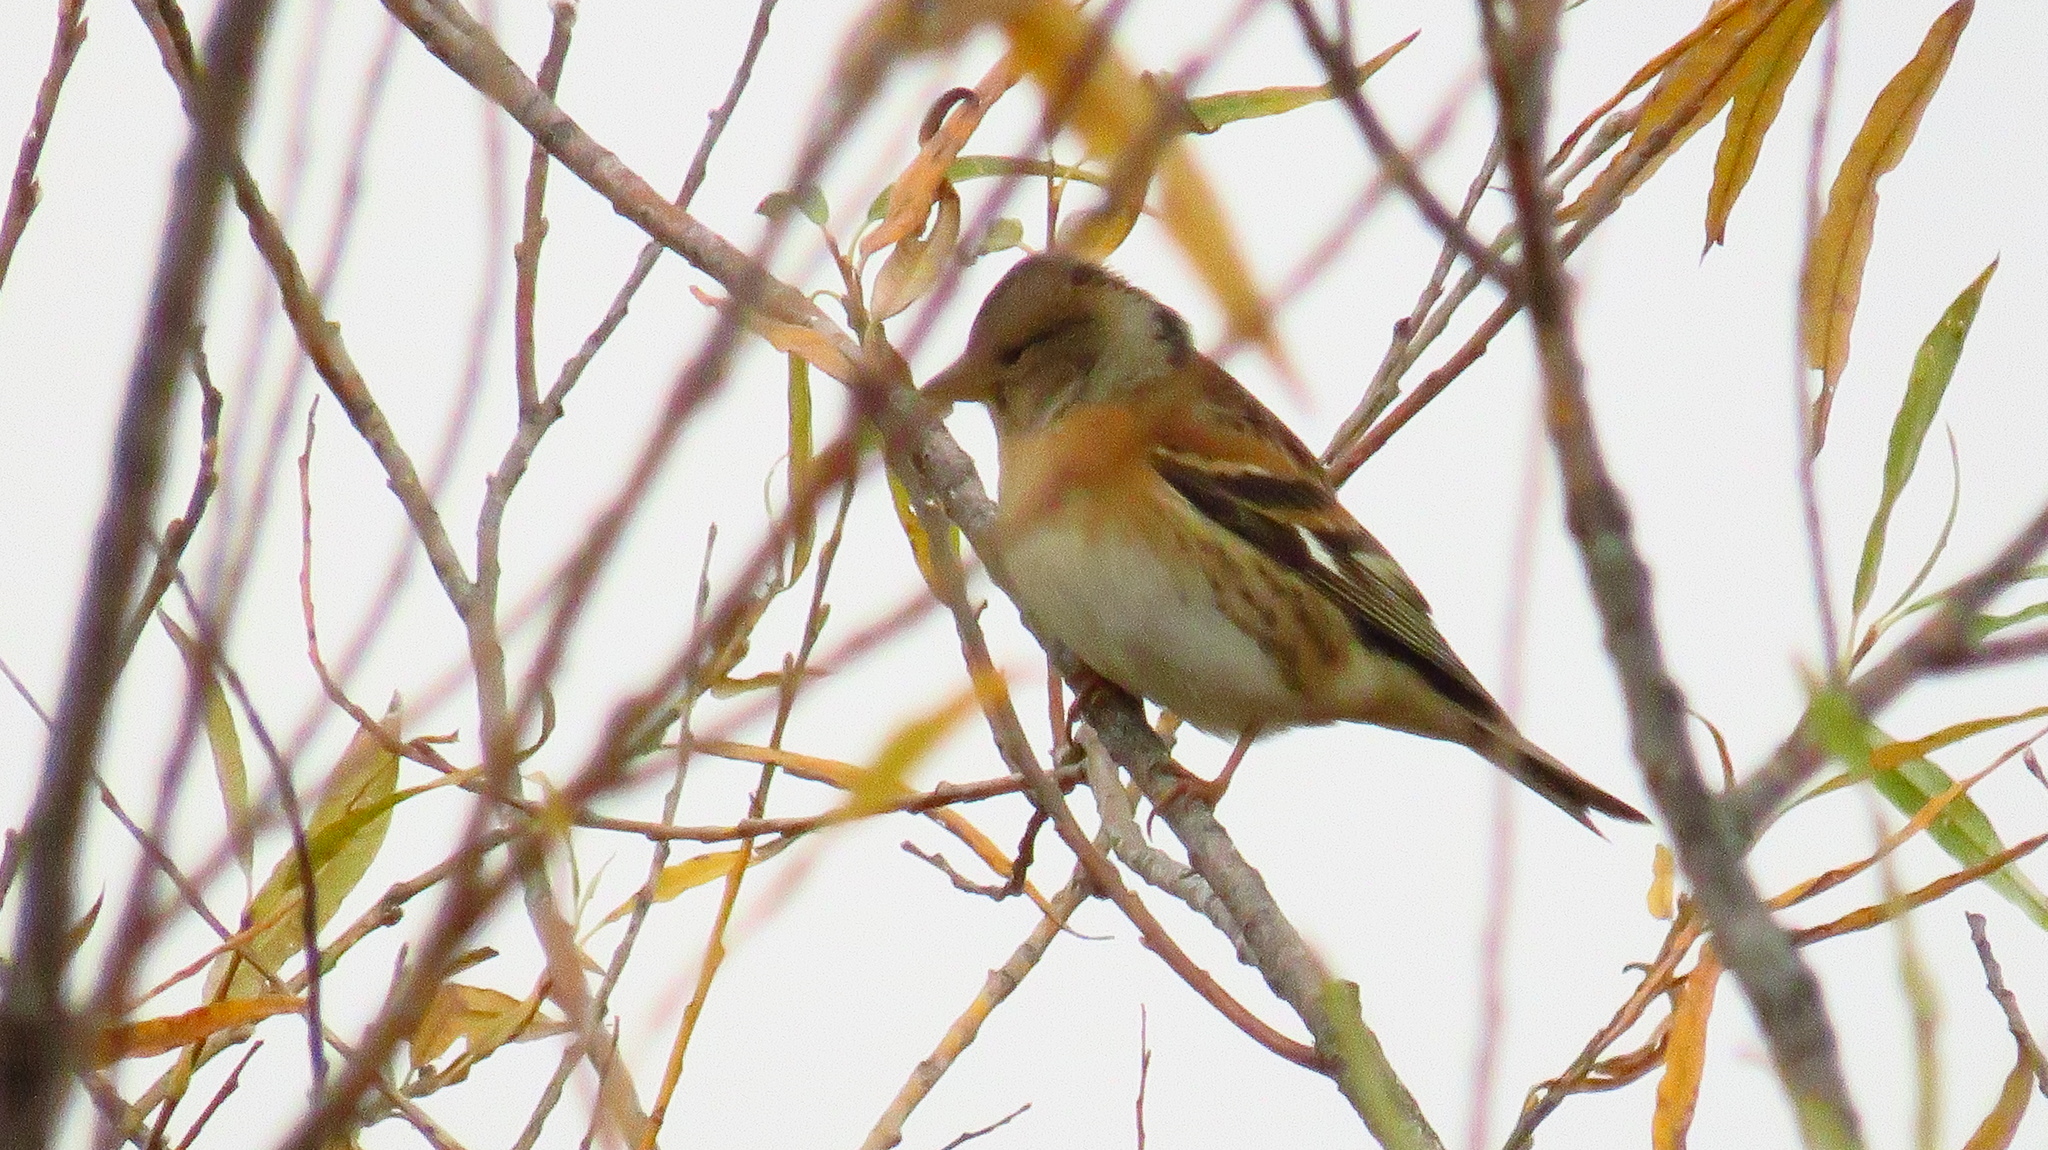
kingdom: Animalia
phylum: Chordata
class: Aves
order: Passeriformes
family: Fringillidae
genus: Fringilla
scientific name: Fringilla montifringilla
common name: Brambling
